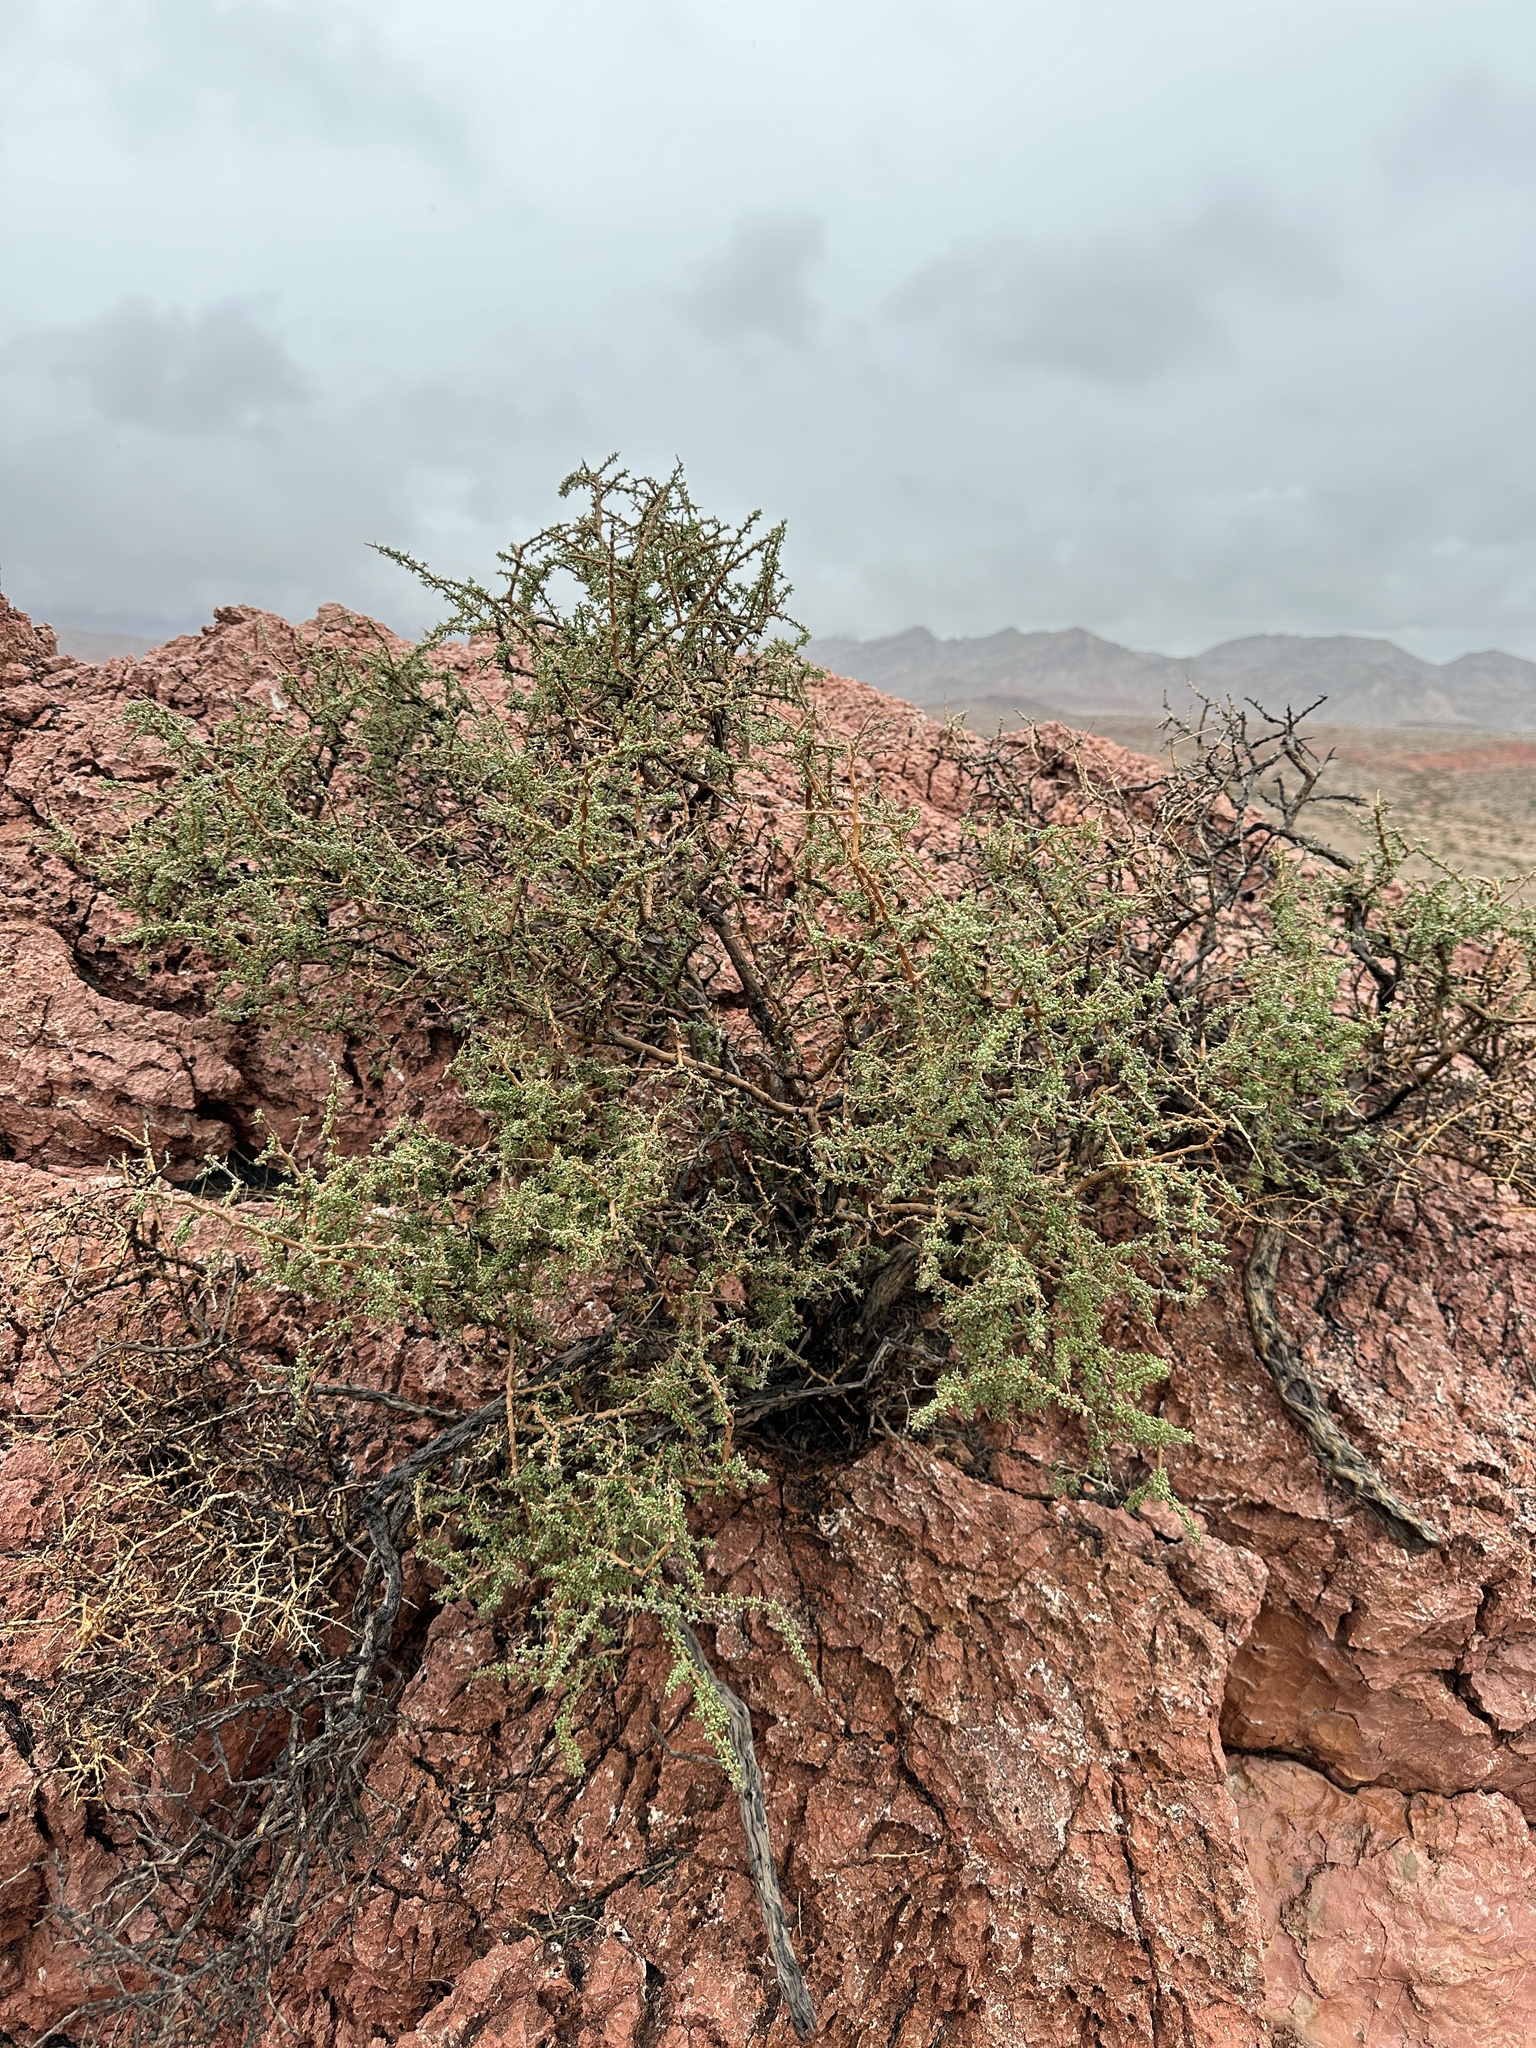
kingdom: Plantae
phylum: Tracheophyta
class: Magnoliopsida
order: Solanales
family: Solanaceae
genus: Lycium
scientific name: Lycium andersonii
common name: Water-jacket
